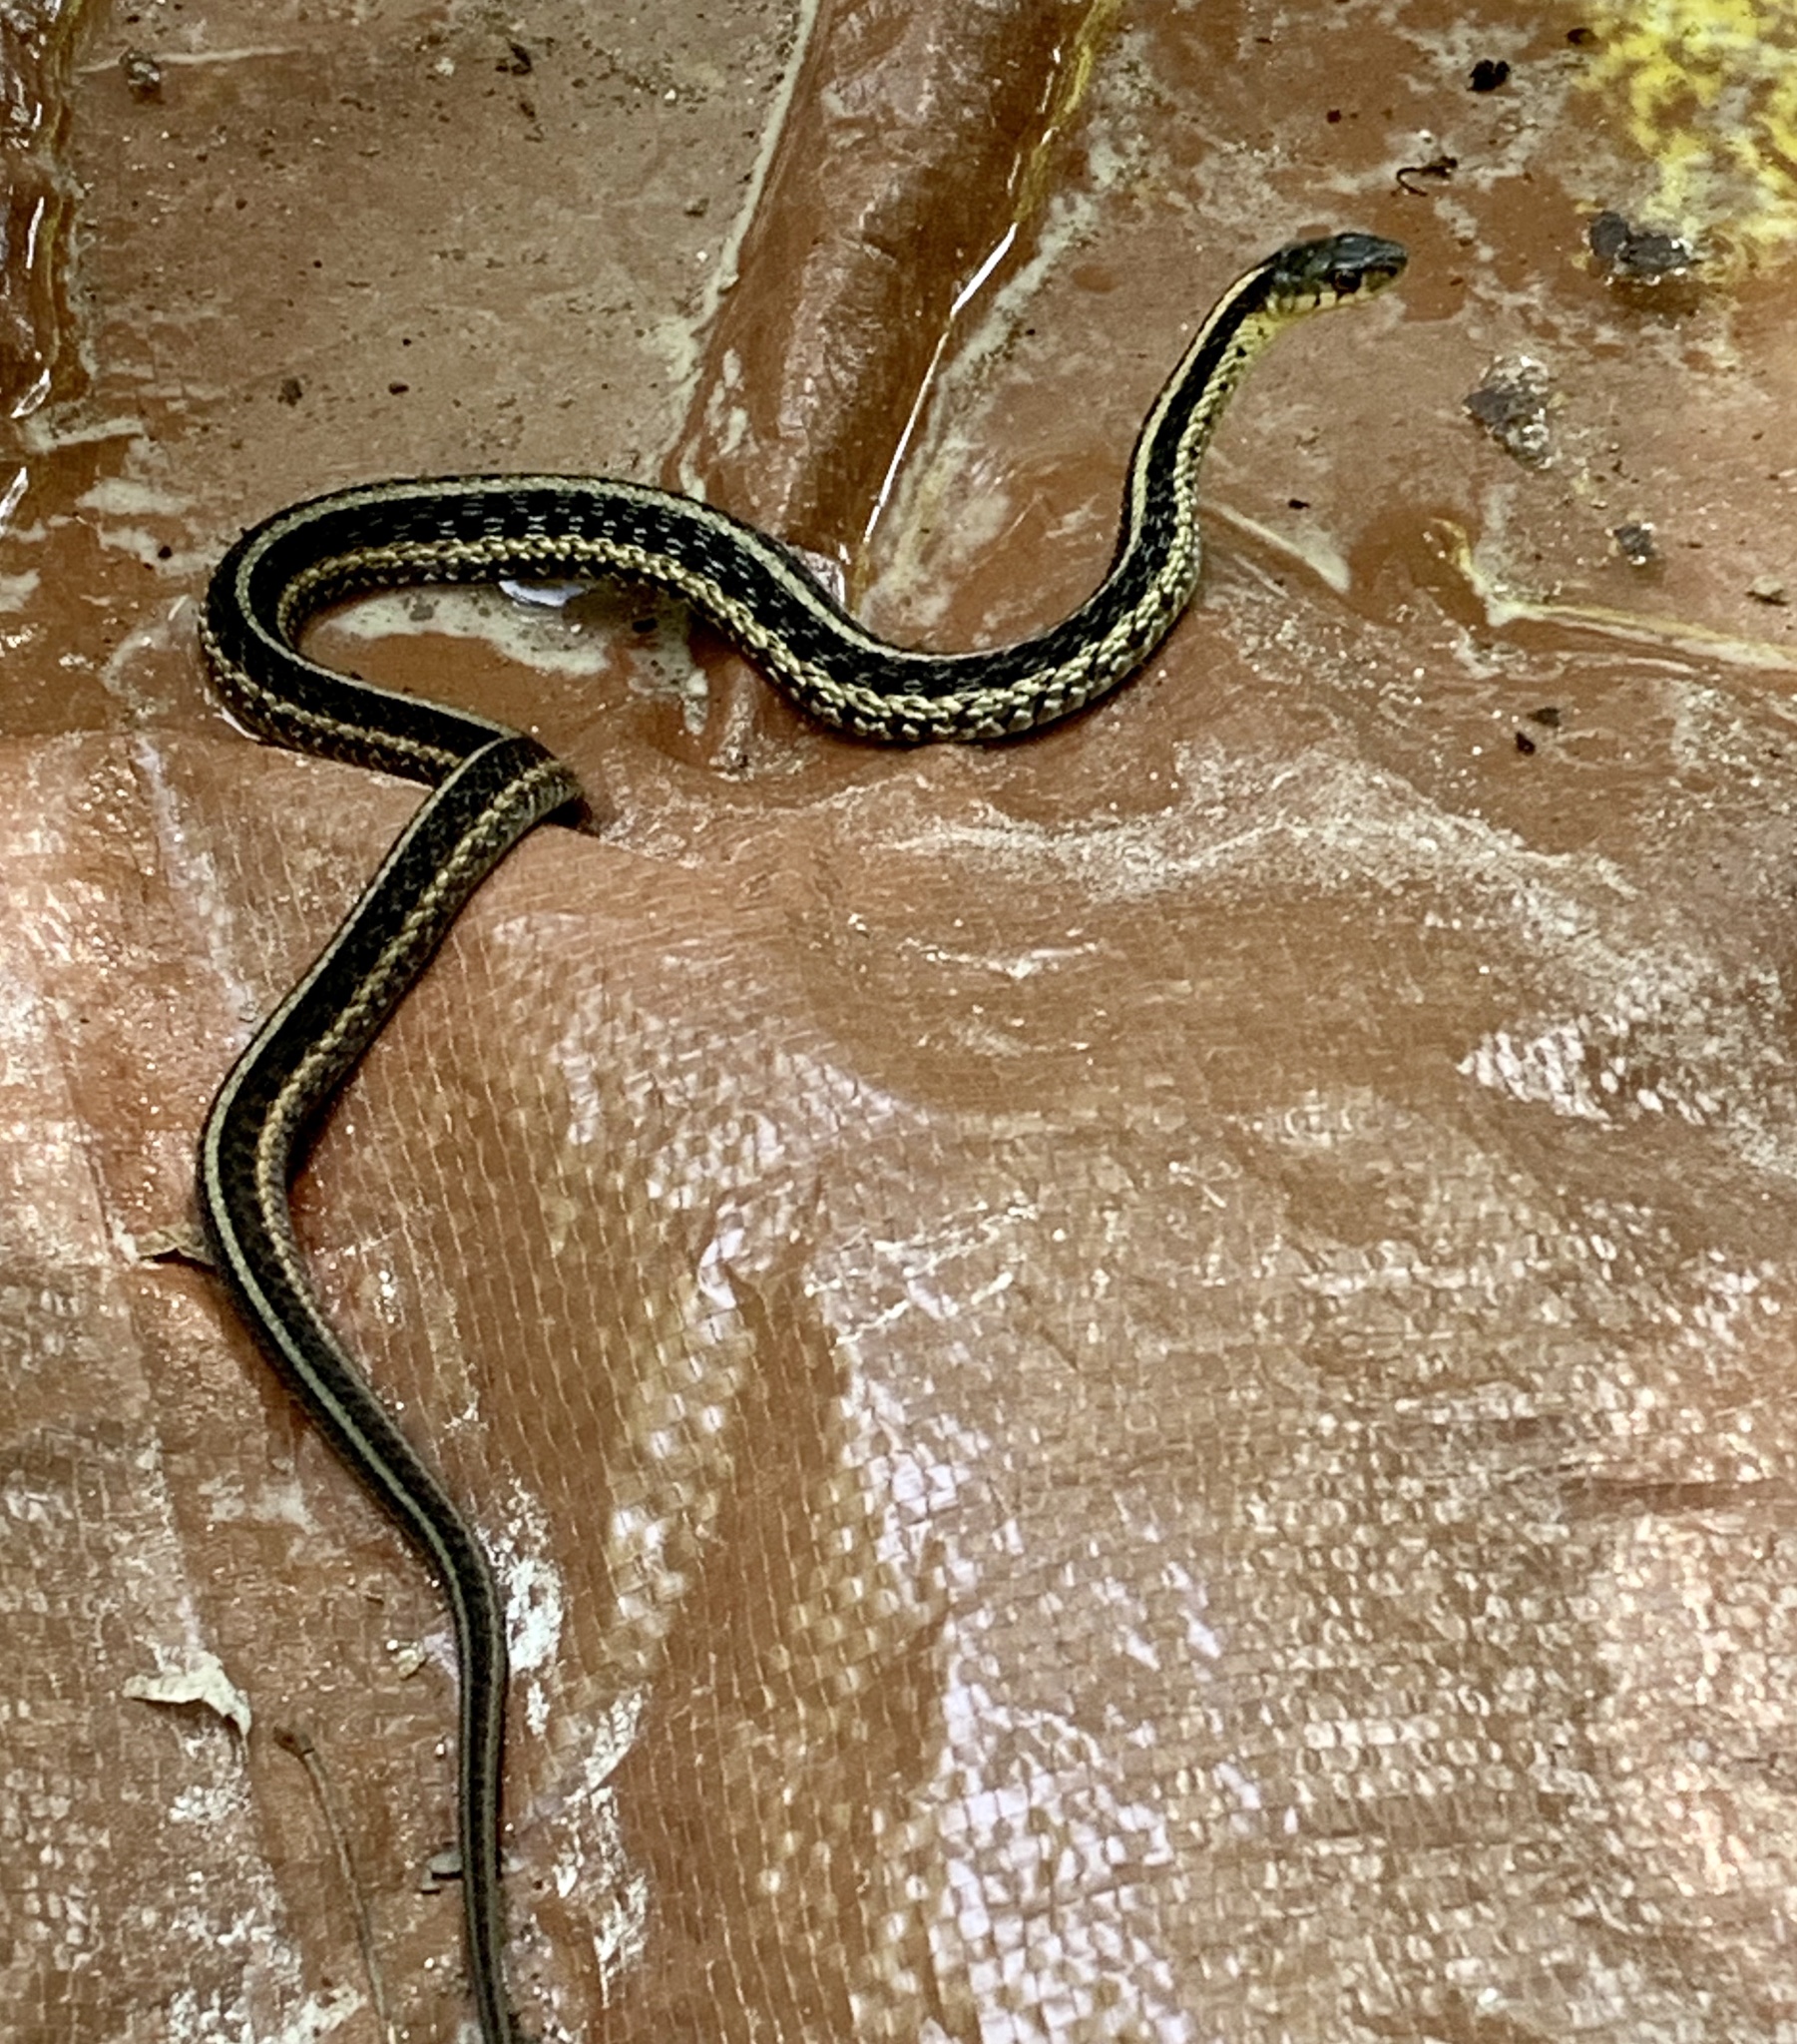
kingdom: Animalia
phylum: Chordata
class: Squamata
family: Colubridae
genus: Thamnophis
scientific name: Thamnophis sirtalis
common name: Common garter snake
